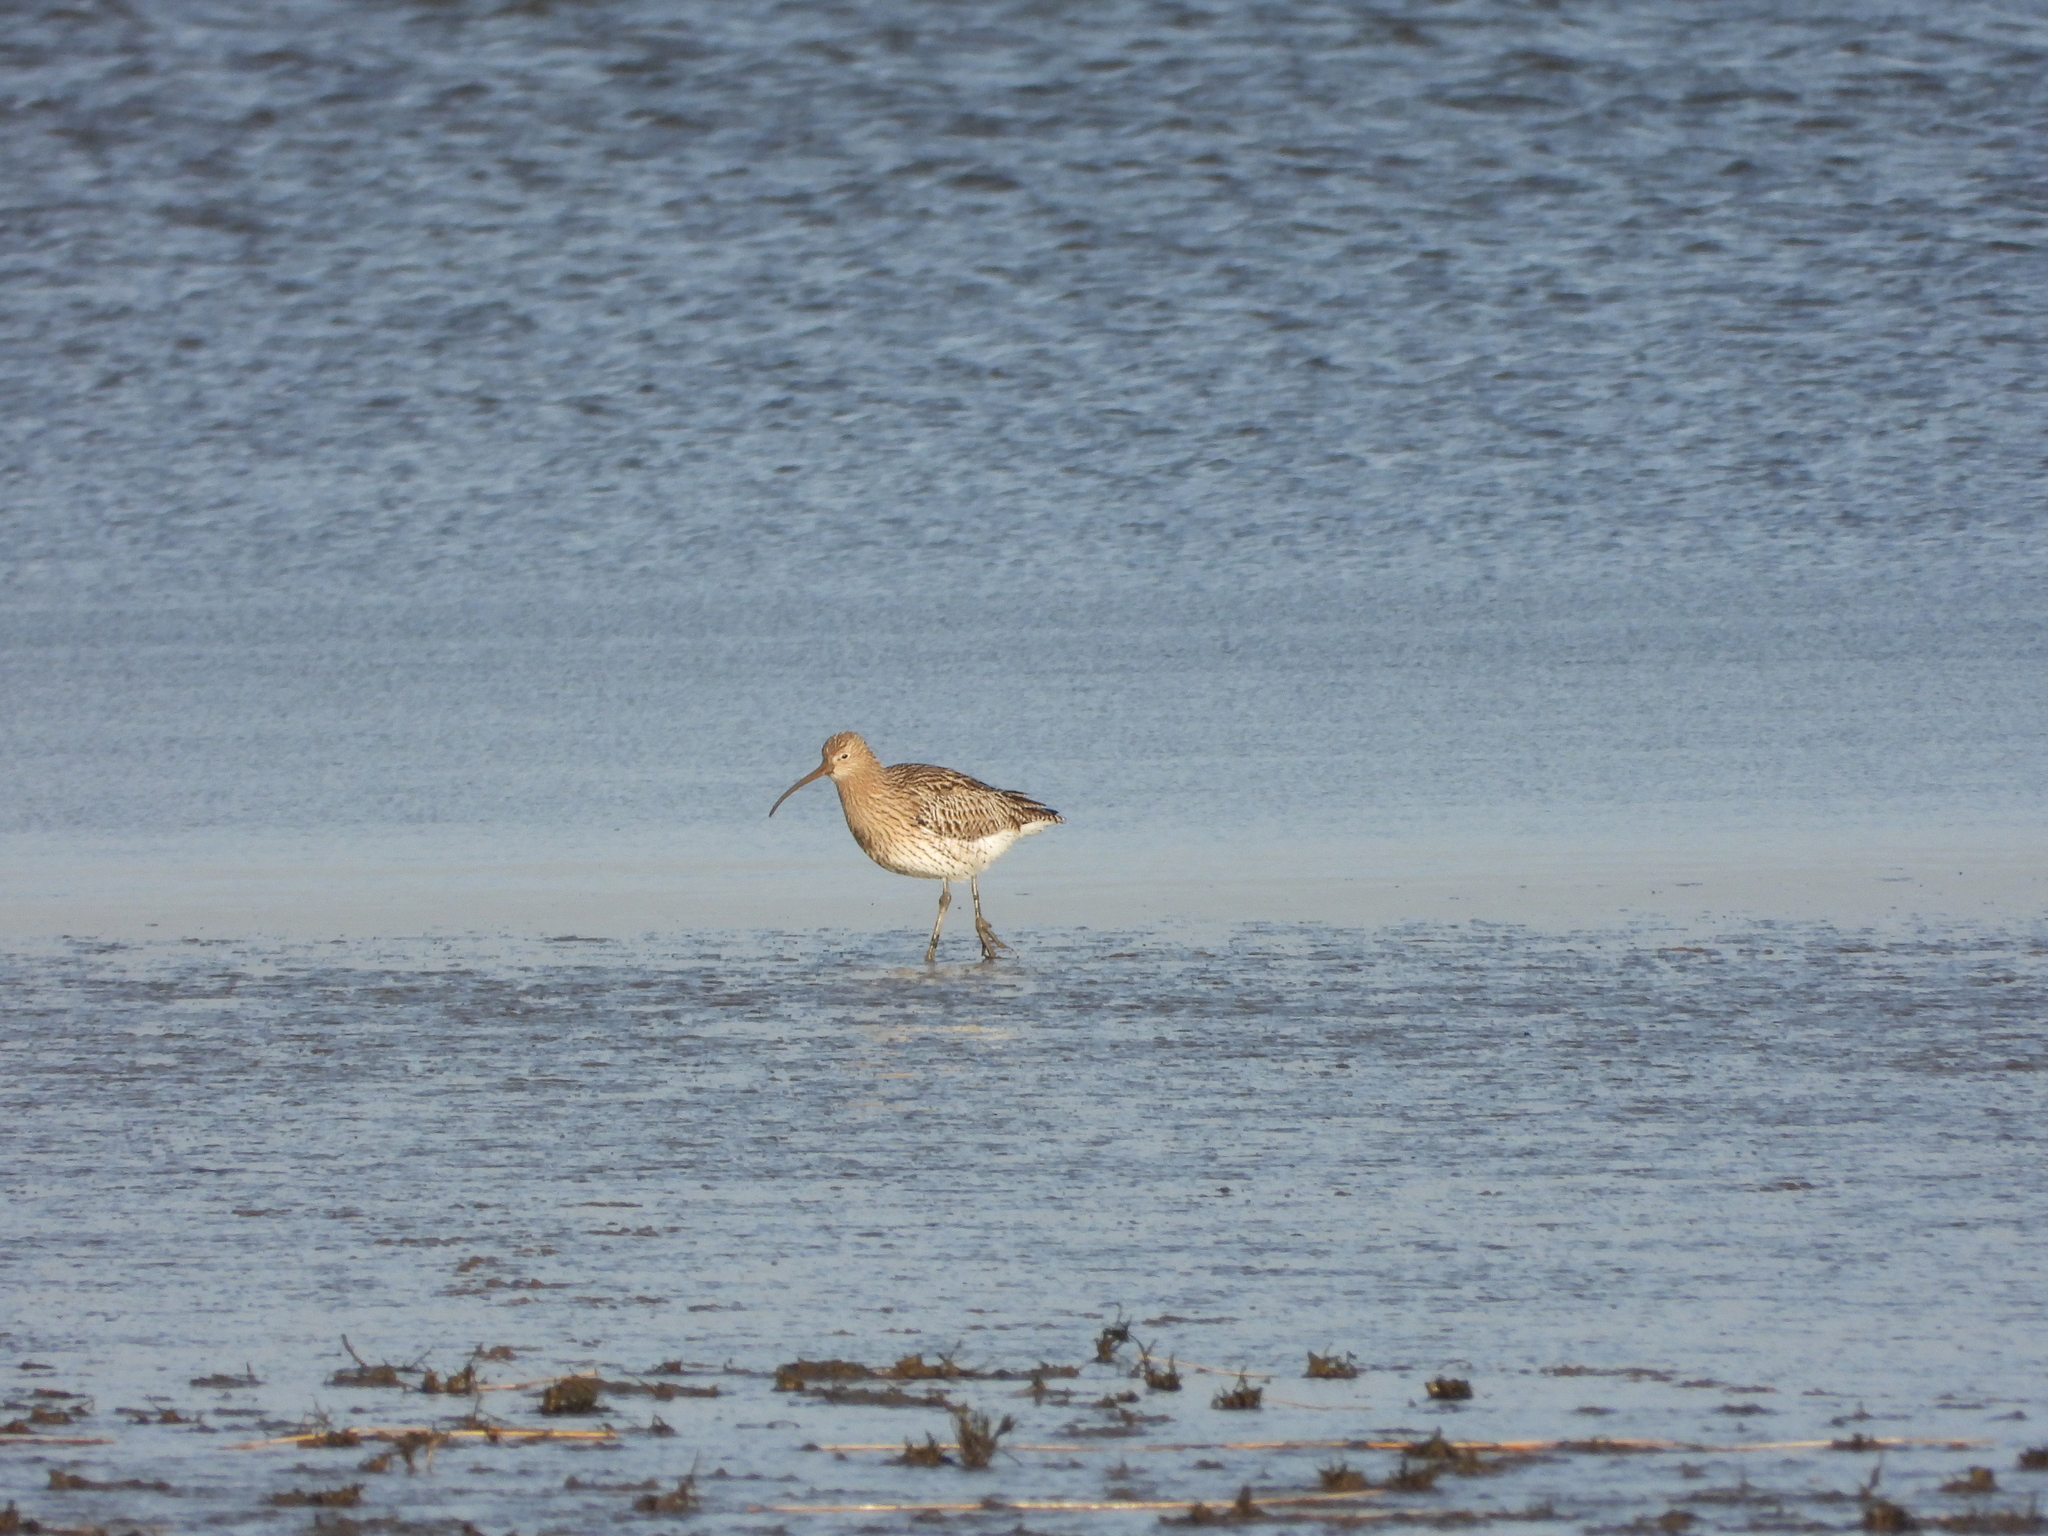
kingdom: Animalia
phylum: Chordata
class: Aves
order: Charadriiformes
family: Scolopacidae
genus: Numenius
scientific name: Numenius arquata
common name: Eurasian curlew
